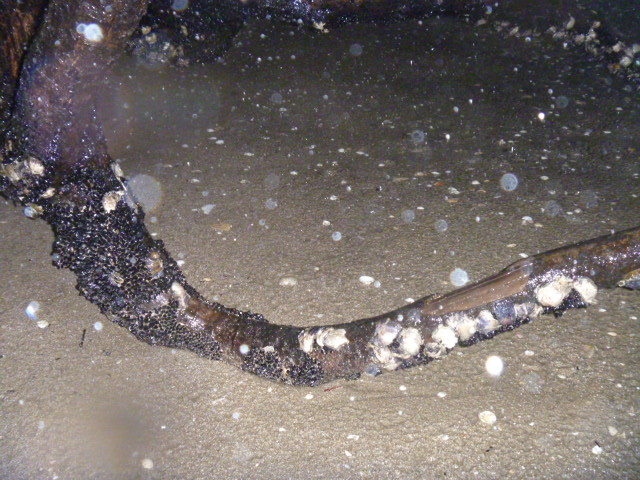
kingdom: Plantae
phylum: Tracheophyta
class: Magnoliopsida
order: Myrtales
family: Myrtaceae
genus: Metrosideros
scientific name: Metrosideros excelsa
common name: New zealand christmastree
